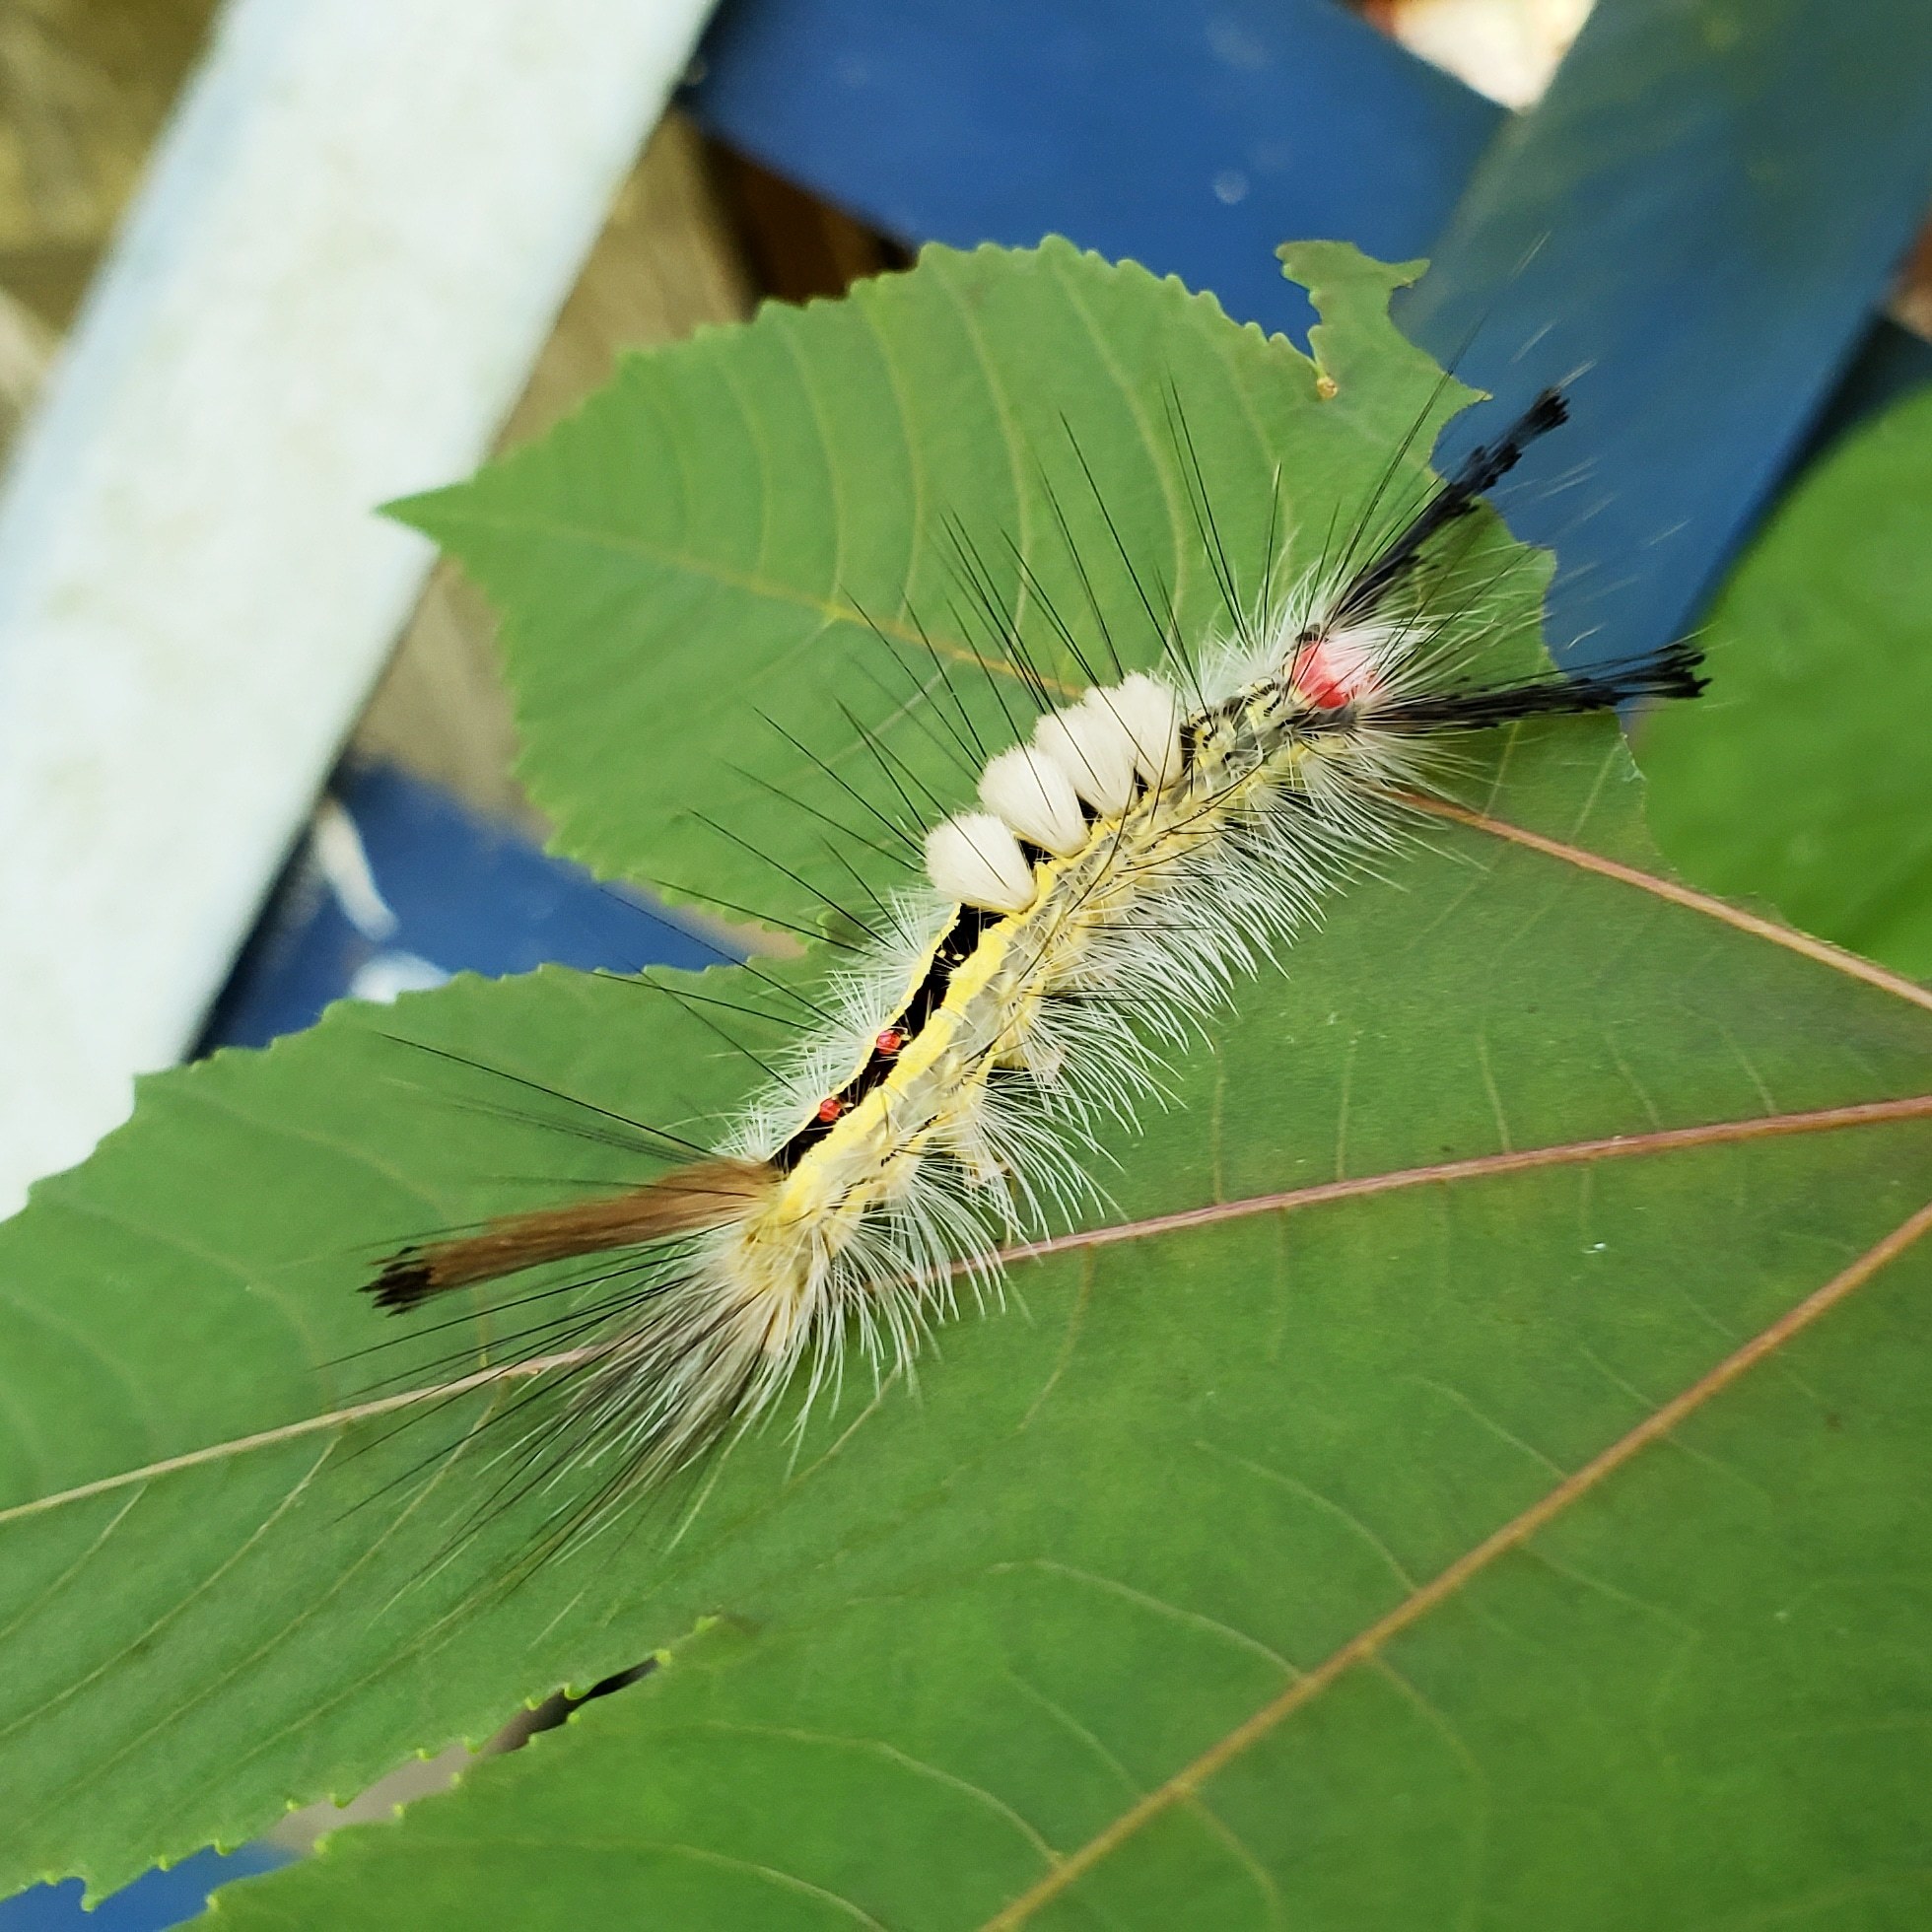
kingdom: Animalia
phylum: Arthropoda
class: Insecta
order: Lepidoptera
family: Erebidae
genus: Orgyia
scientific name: Orgyia leucostigma
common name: White-marked tussock moth
